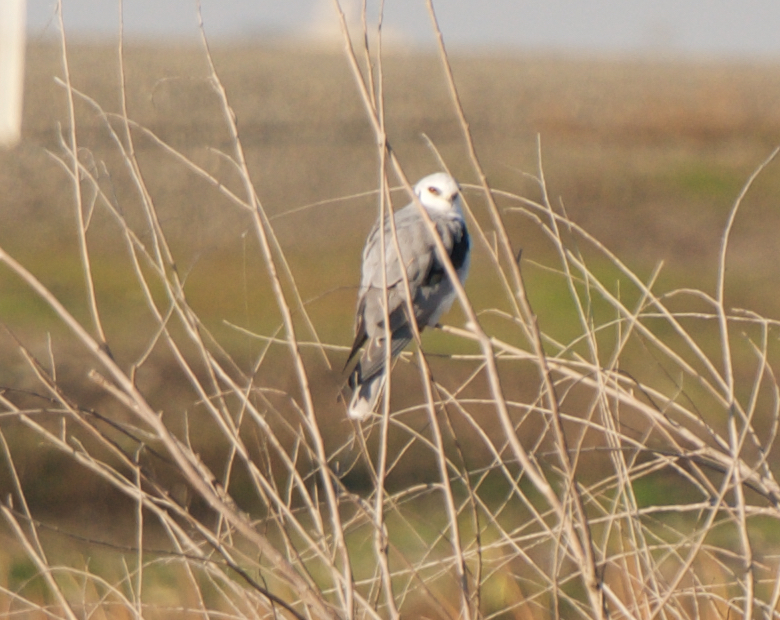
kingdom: Animalia
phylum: Chordata
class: Aves
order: Accipitriformes
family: Accipitridae
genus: Elanus
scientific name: Elanus leucurus
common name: White-tailed kite
